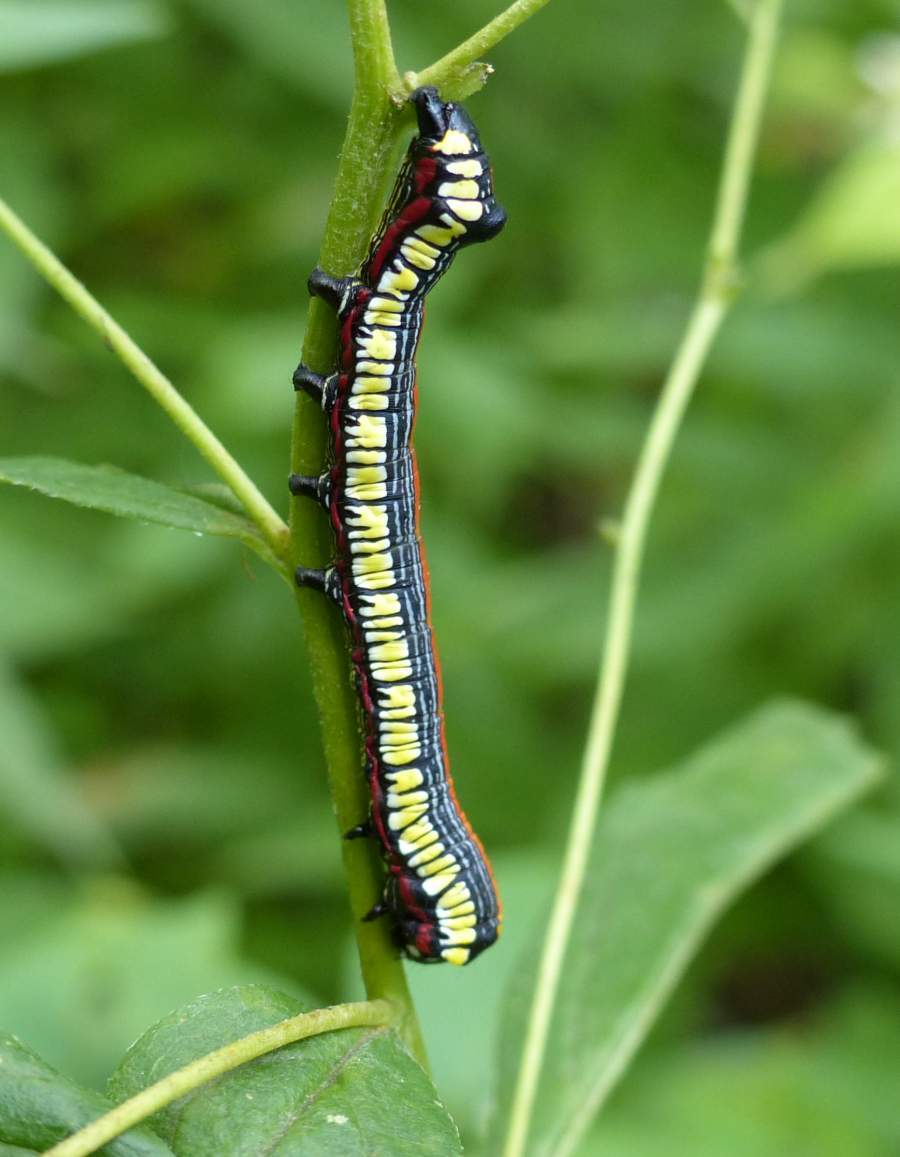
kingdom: Animalia
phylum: Arthropoda
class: Insecta
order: Lepidoptera
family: Noctuidae
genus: Cucullia
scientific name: Cucullia convexipennis
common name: Brown-hooded owlet
